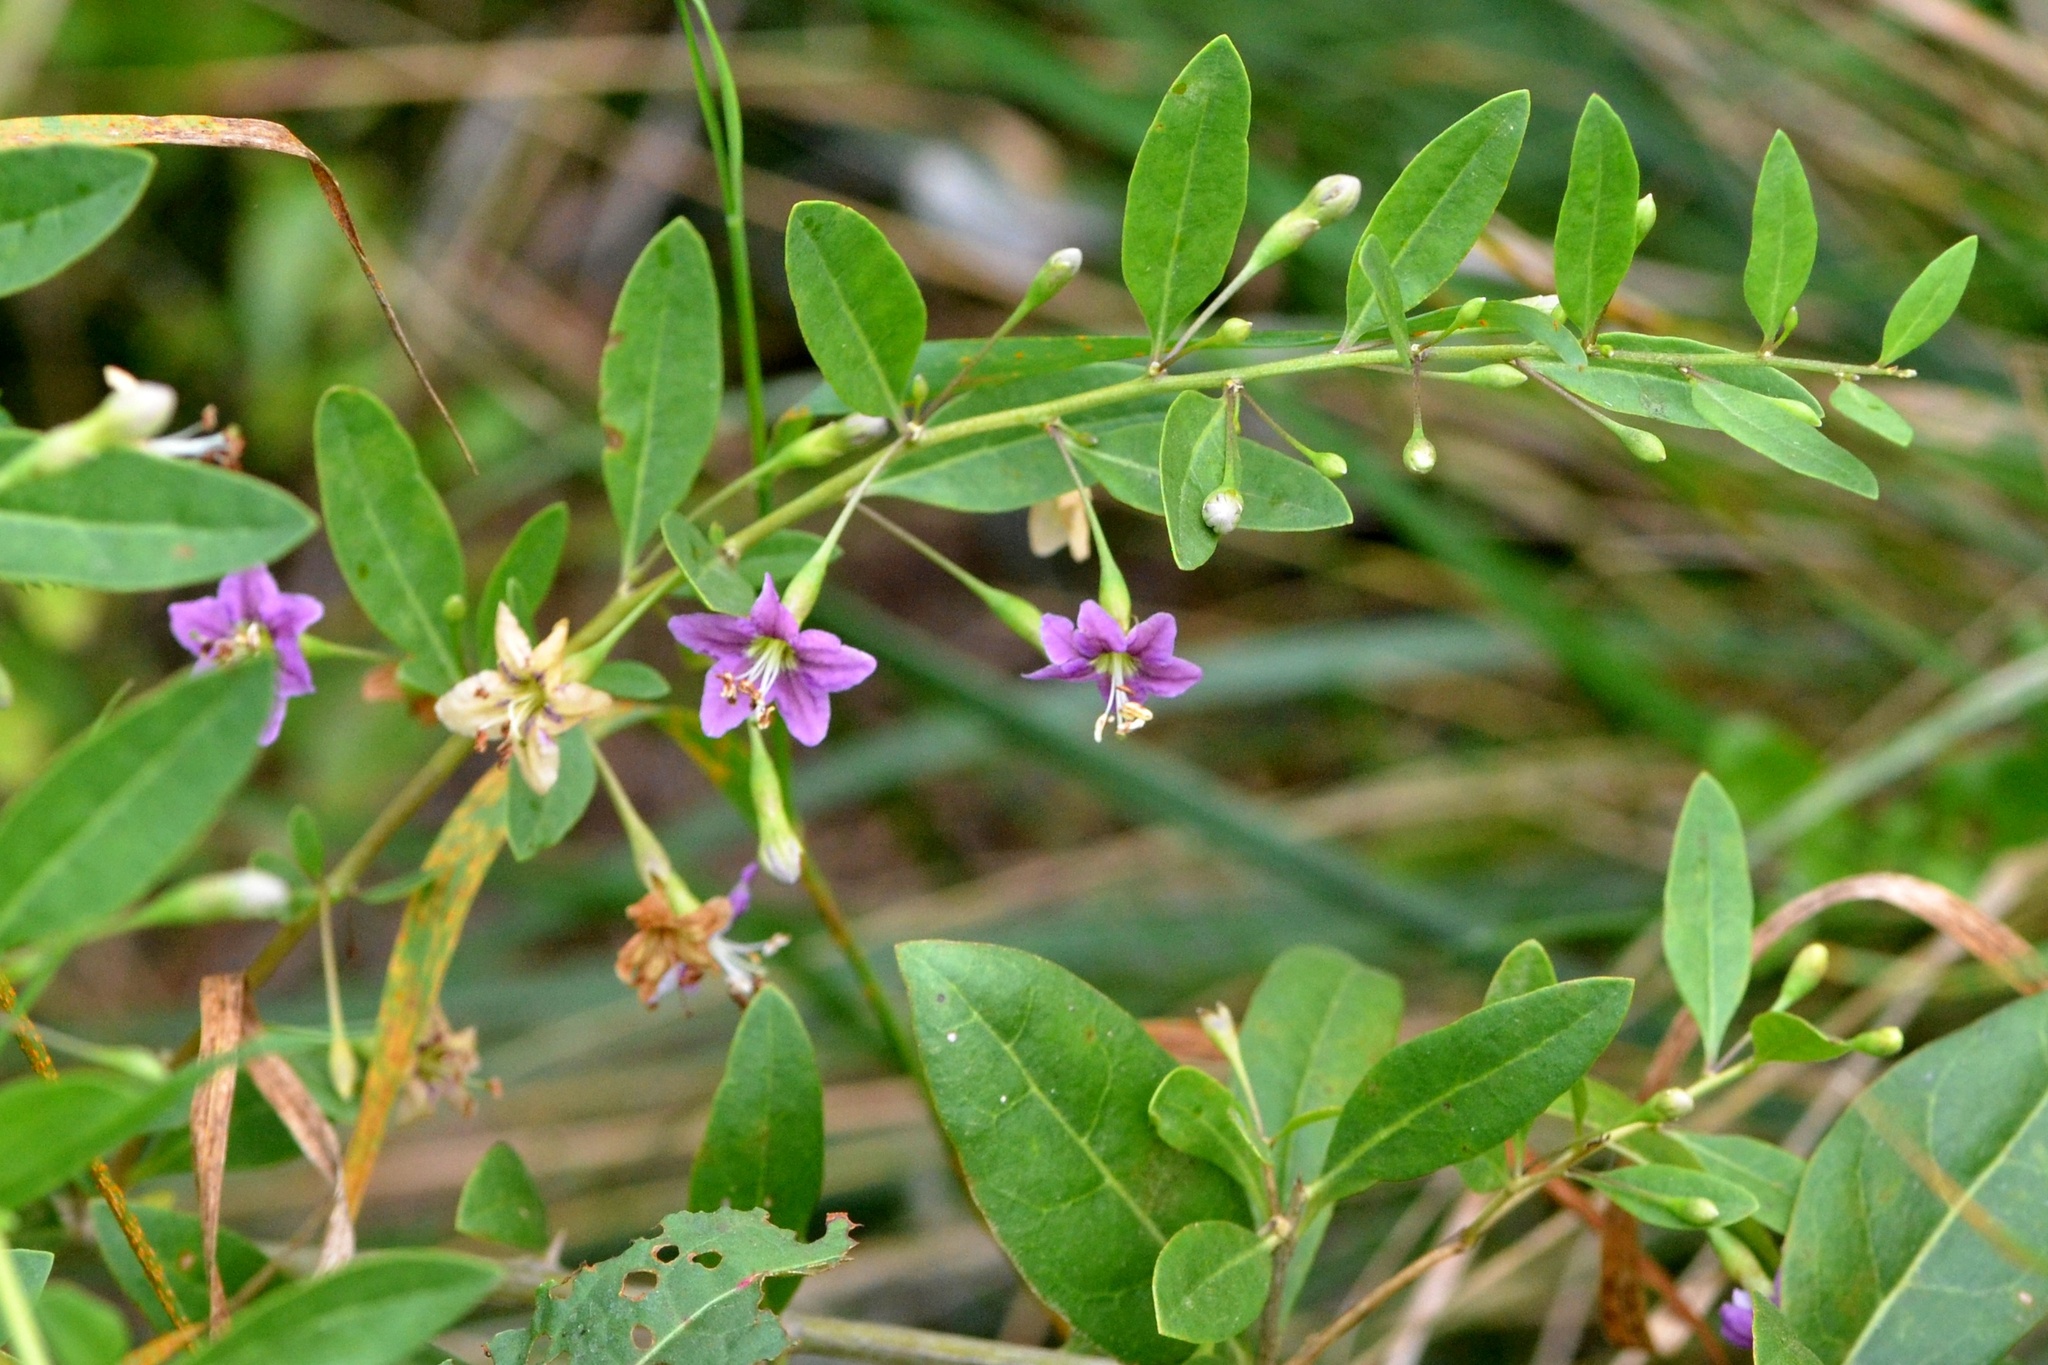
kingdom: Plantae
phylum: Tracheophyta
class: Magnoliopsida
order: Solanales
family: Solanaceae
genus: Lycium
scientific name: Lycium barbarum
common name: Duke of argyll's teaplant
